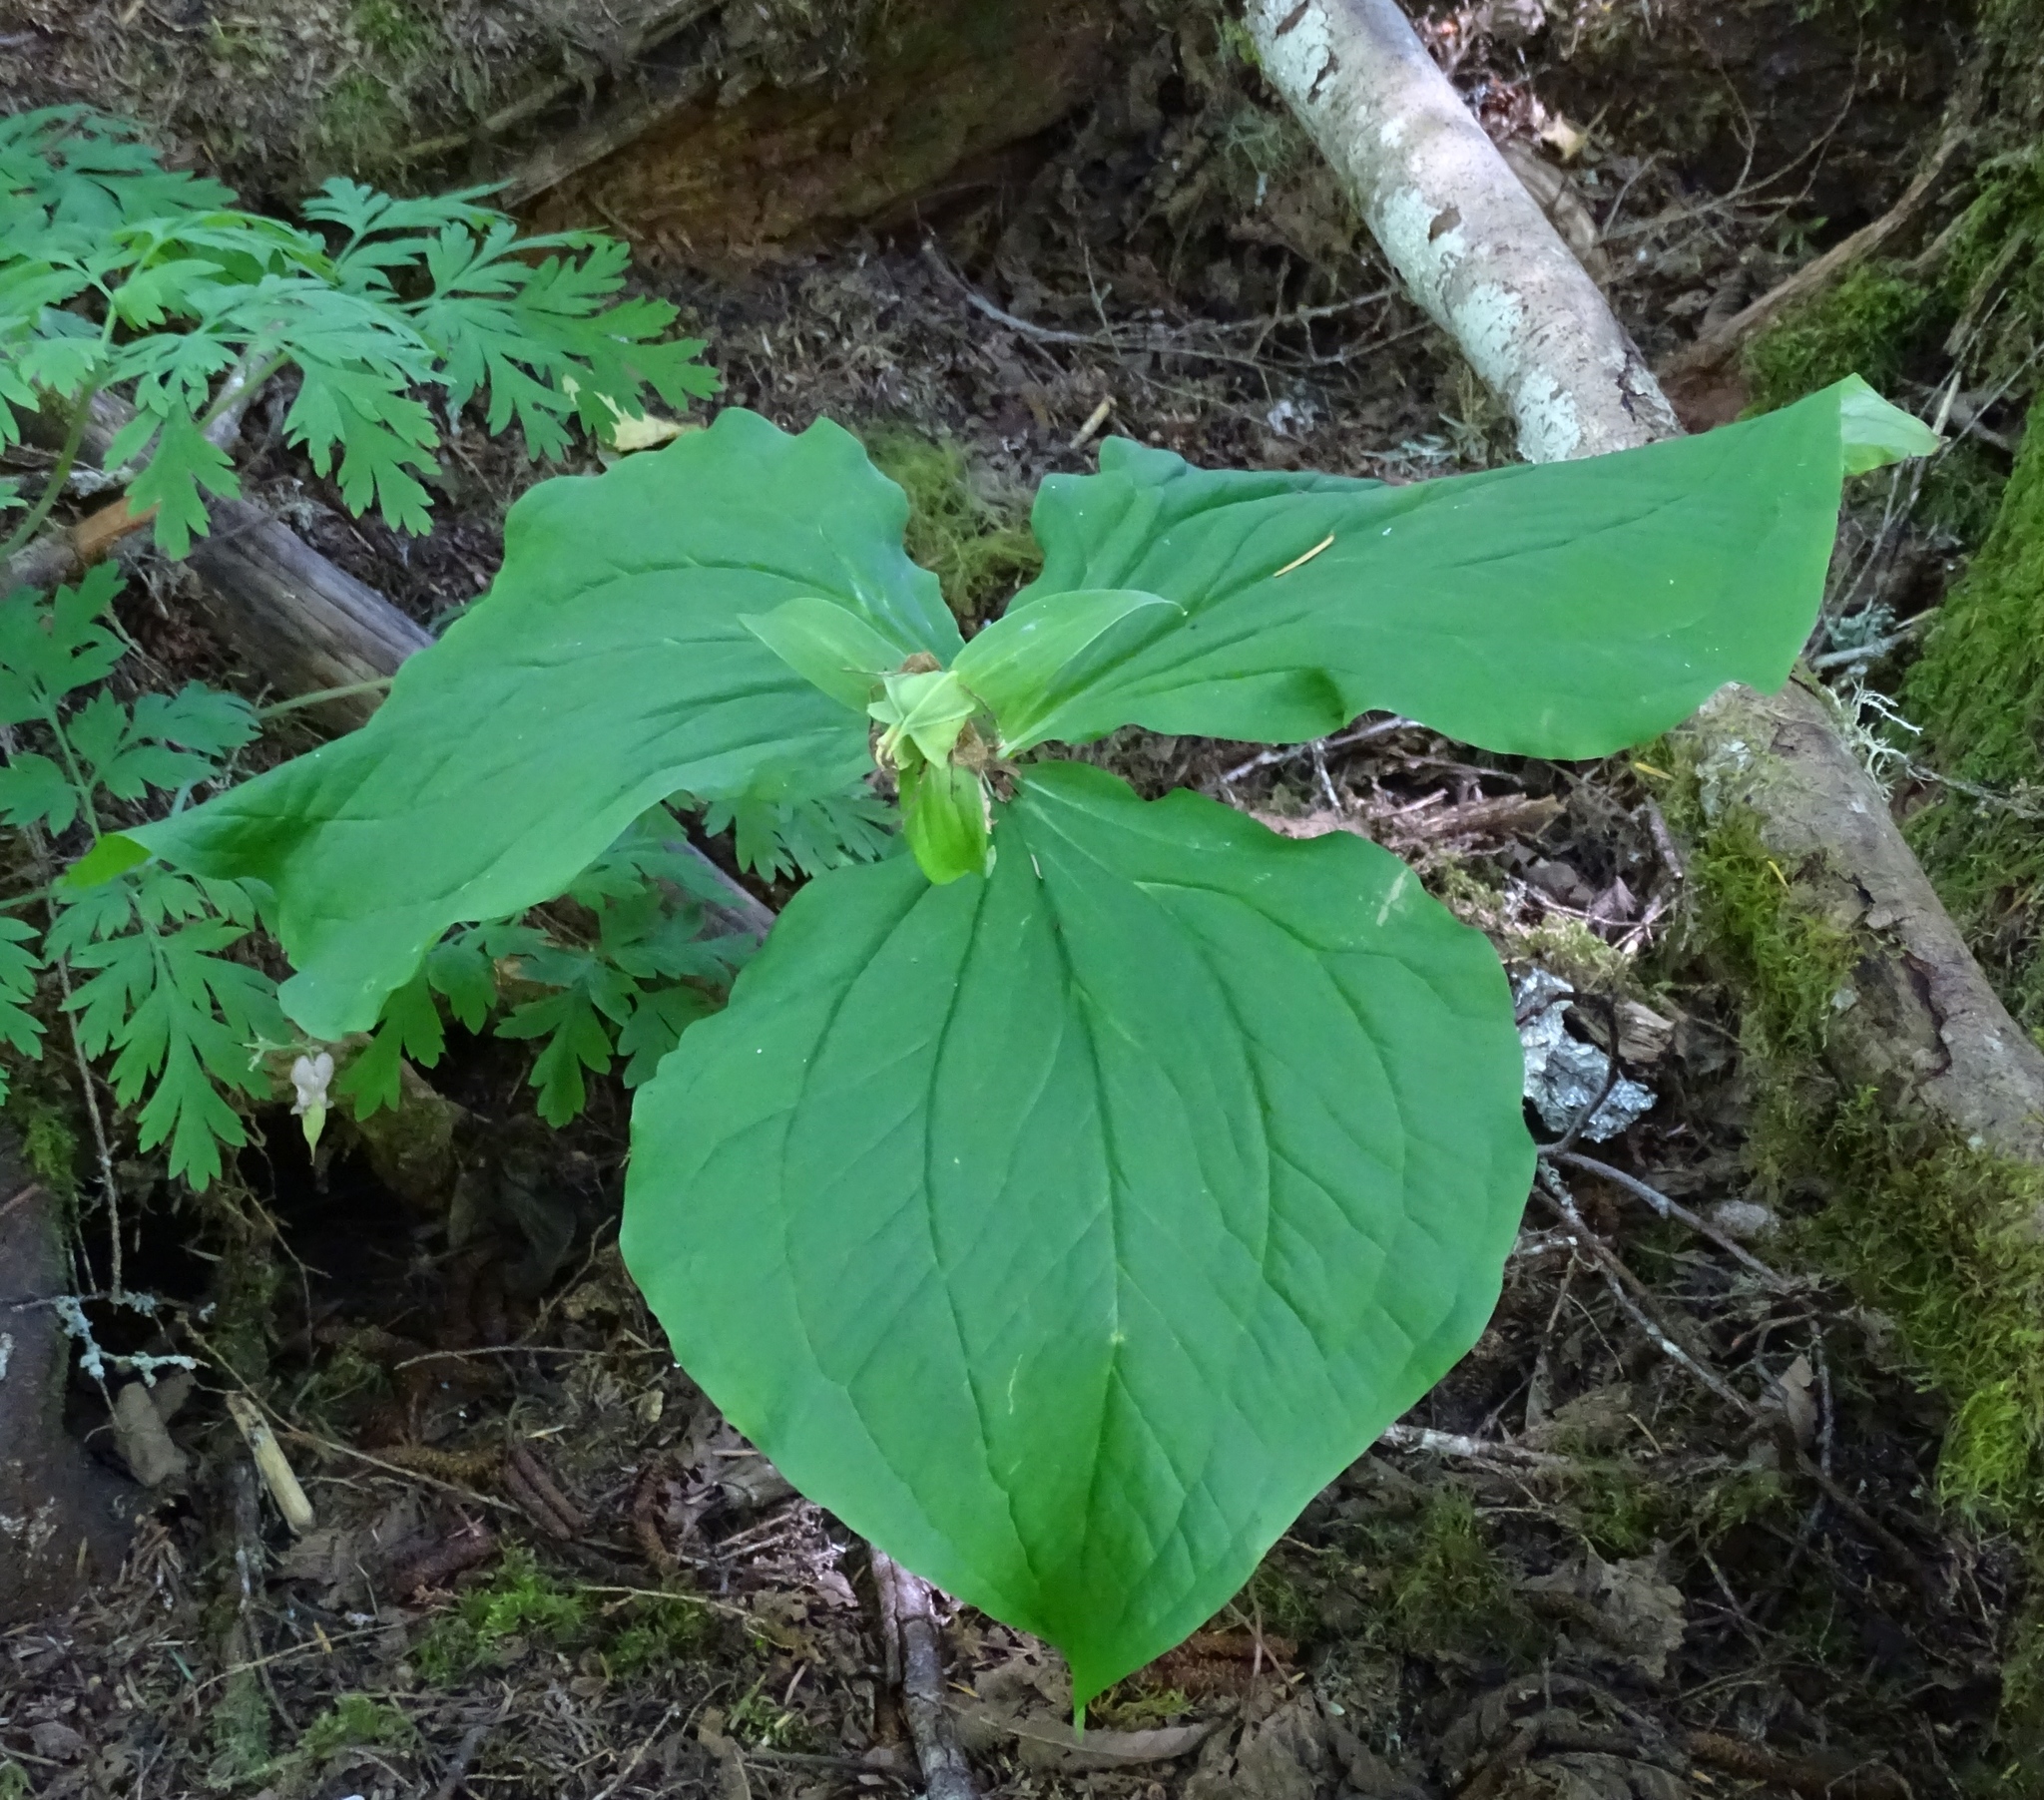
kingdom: Plantae
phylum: Tracheophyta
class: Liliopsida
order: Liliales
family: Melanthiaceae
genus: Trillium
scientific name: Trillium ovatum
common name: Pacific trillium
